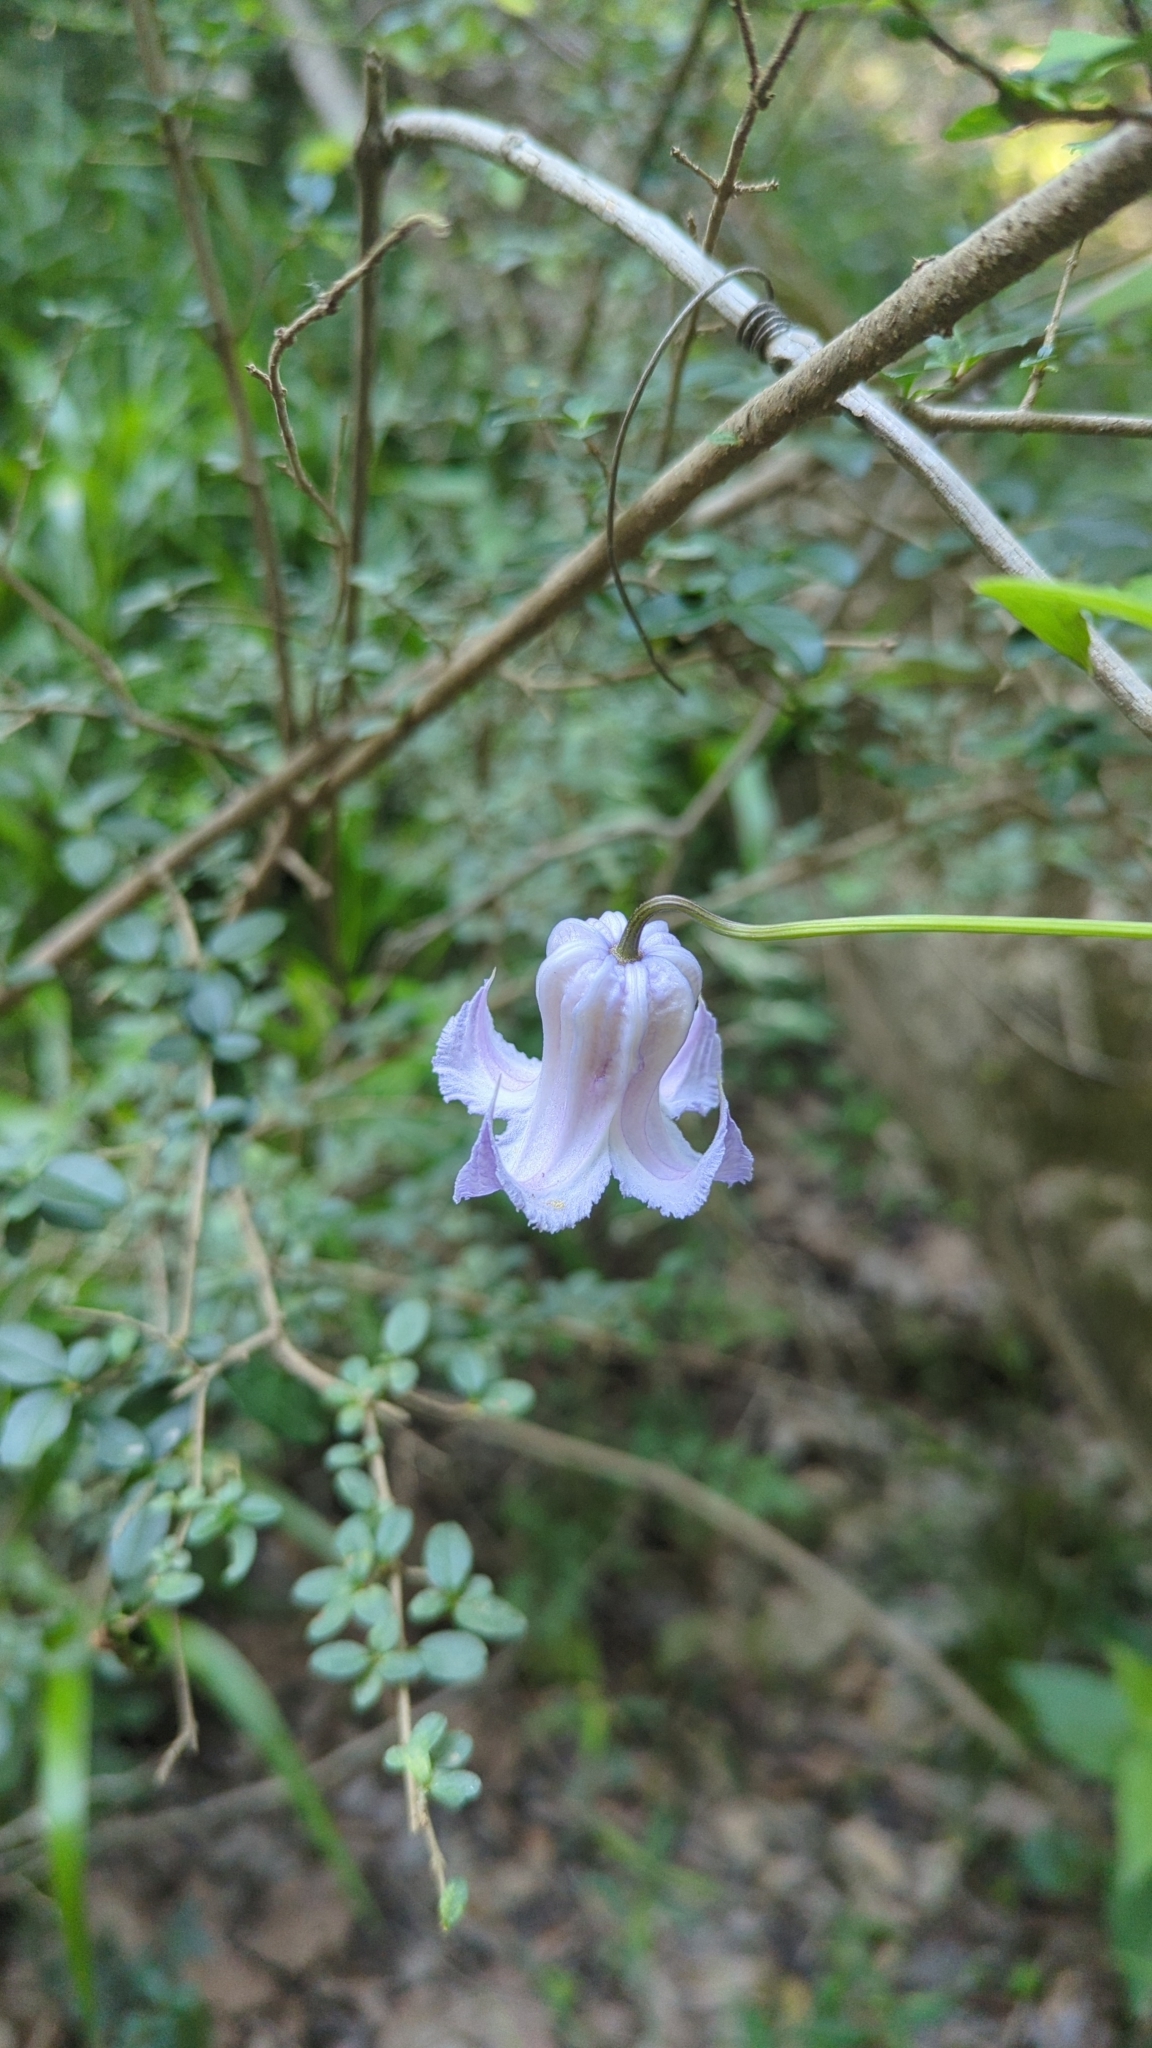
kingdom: Plantae
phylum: Tracheophyta
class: Magnoliopsida
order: Ranunculales
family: Ranunculaceae
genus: Clematis
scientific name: Clematis crispa
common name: Curly clematis
